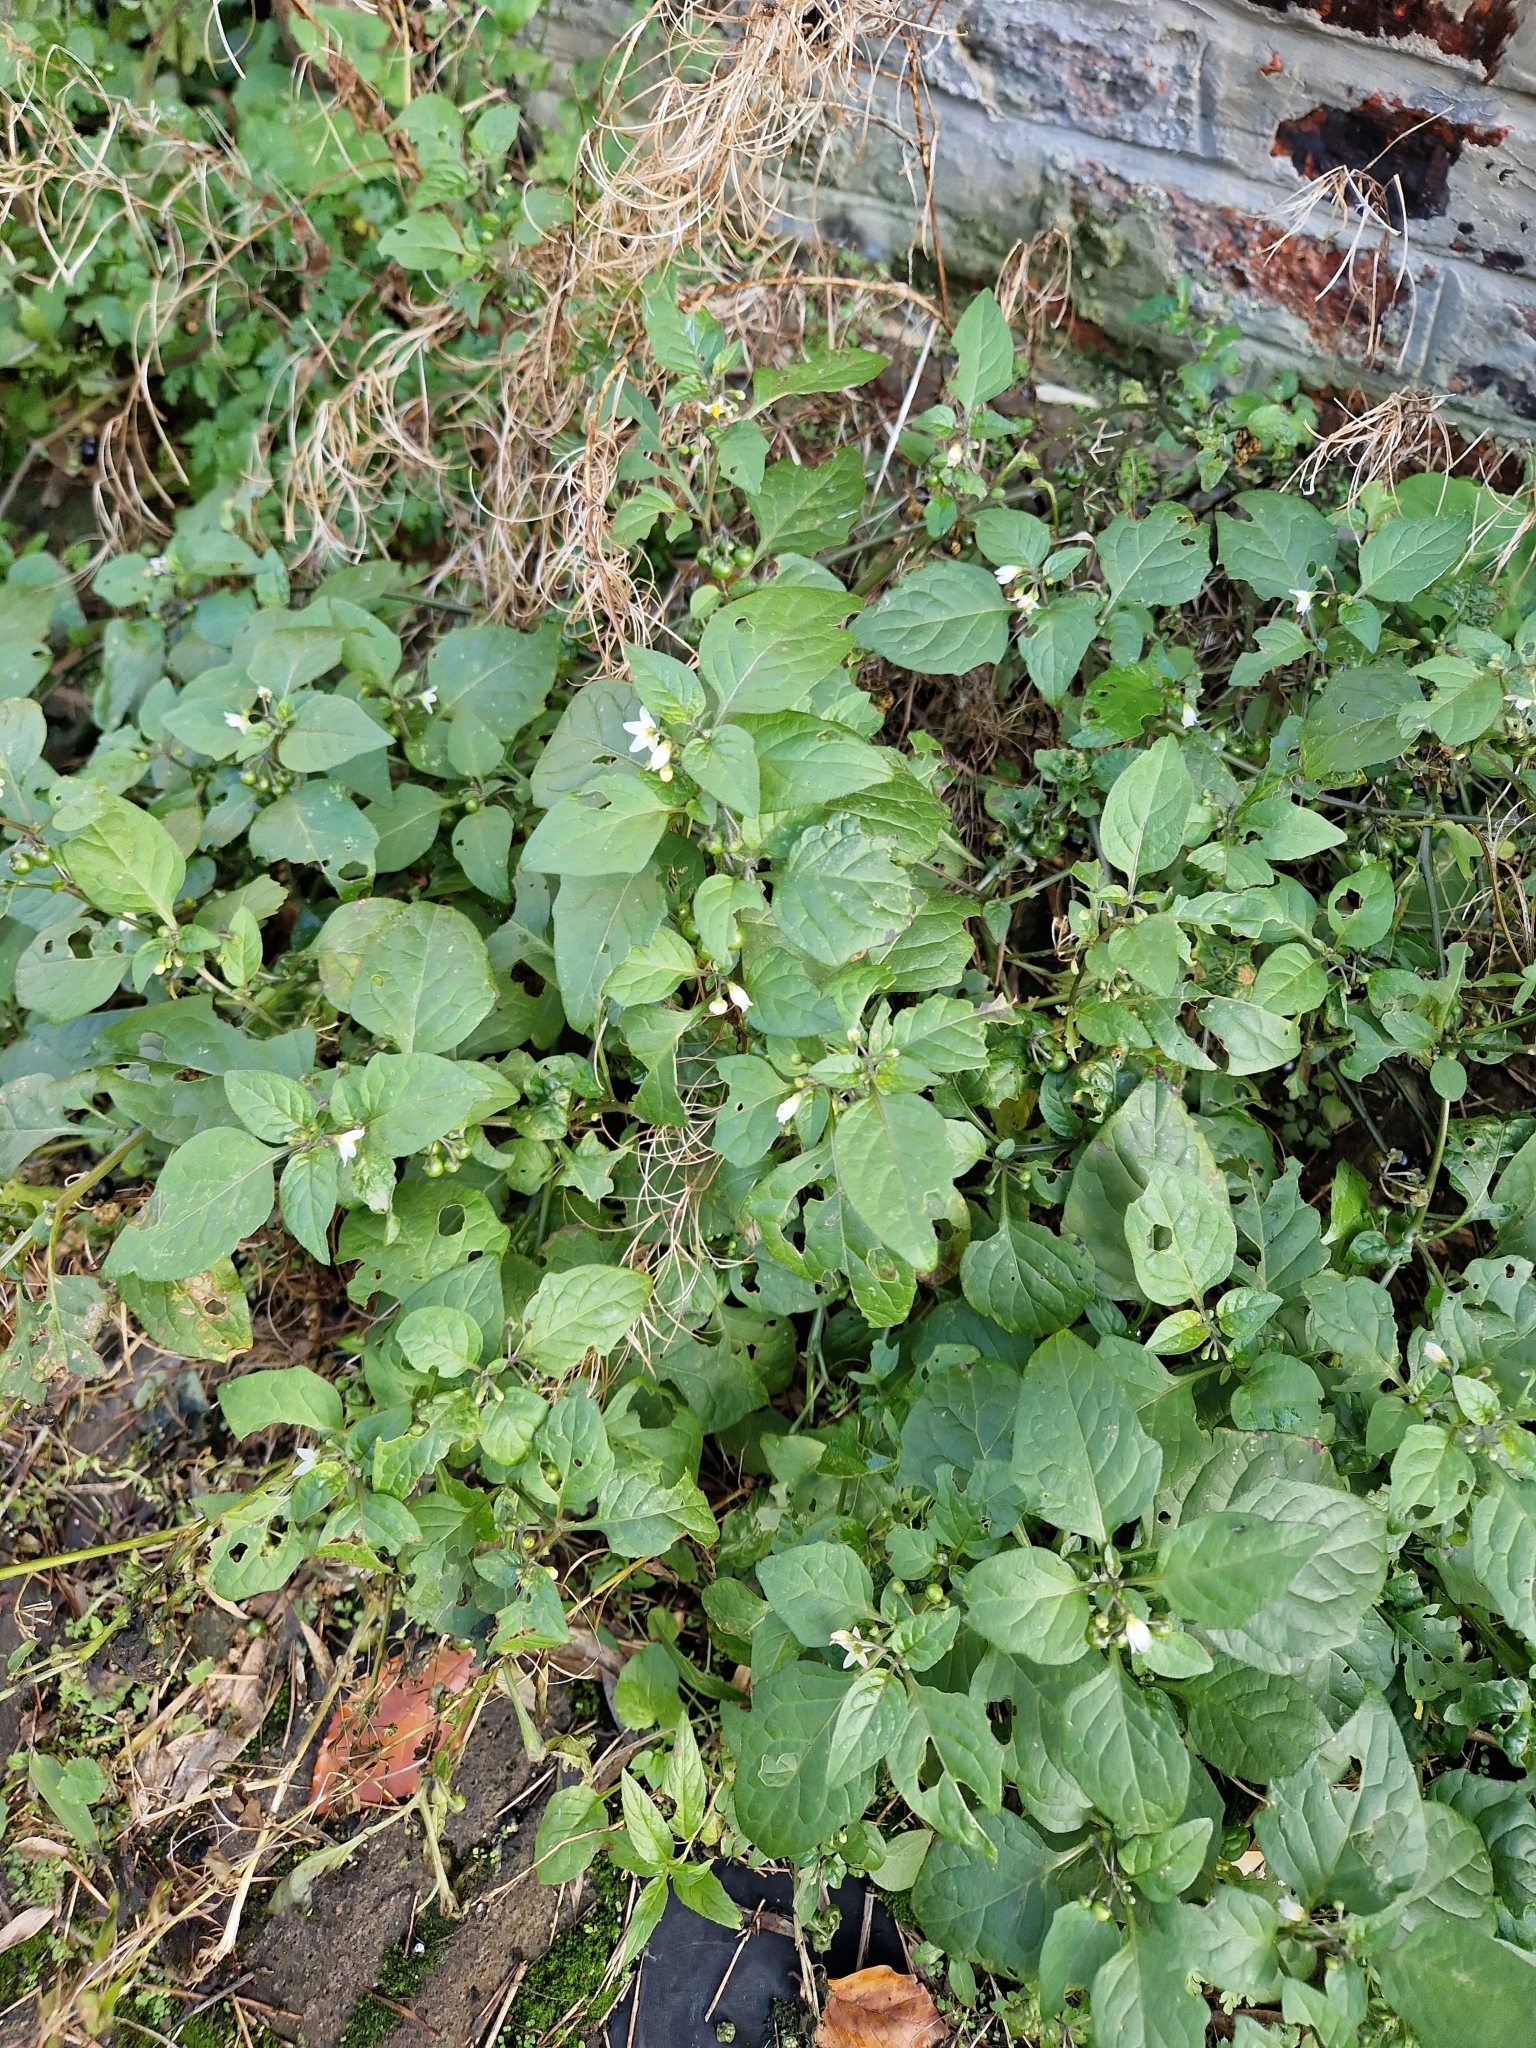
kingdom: Plantae
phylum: Tracheophyta
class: Magnoliopsida
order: Solanales
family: Solanaceae
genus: Solanum
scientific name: Solanum nigrum
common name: Black nightshade
